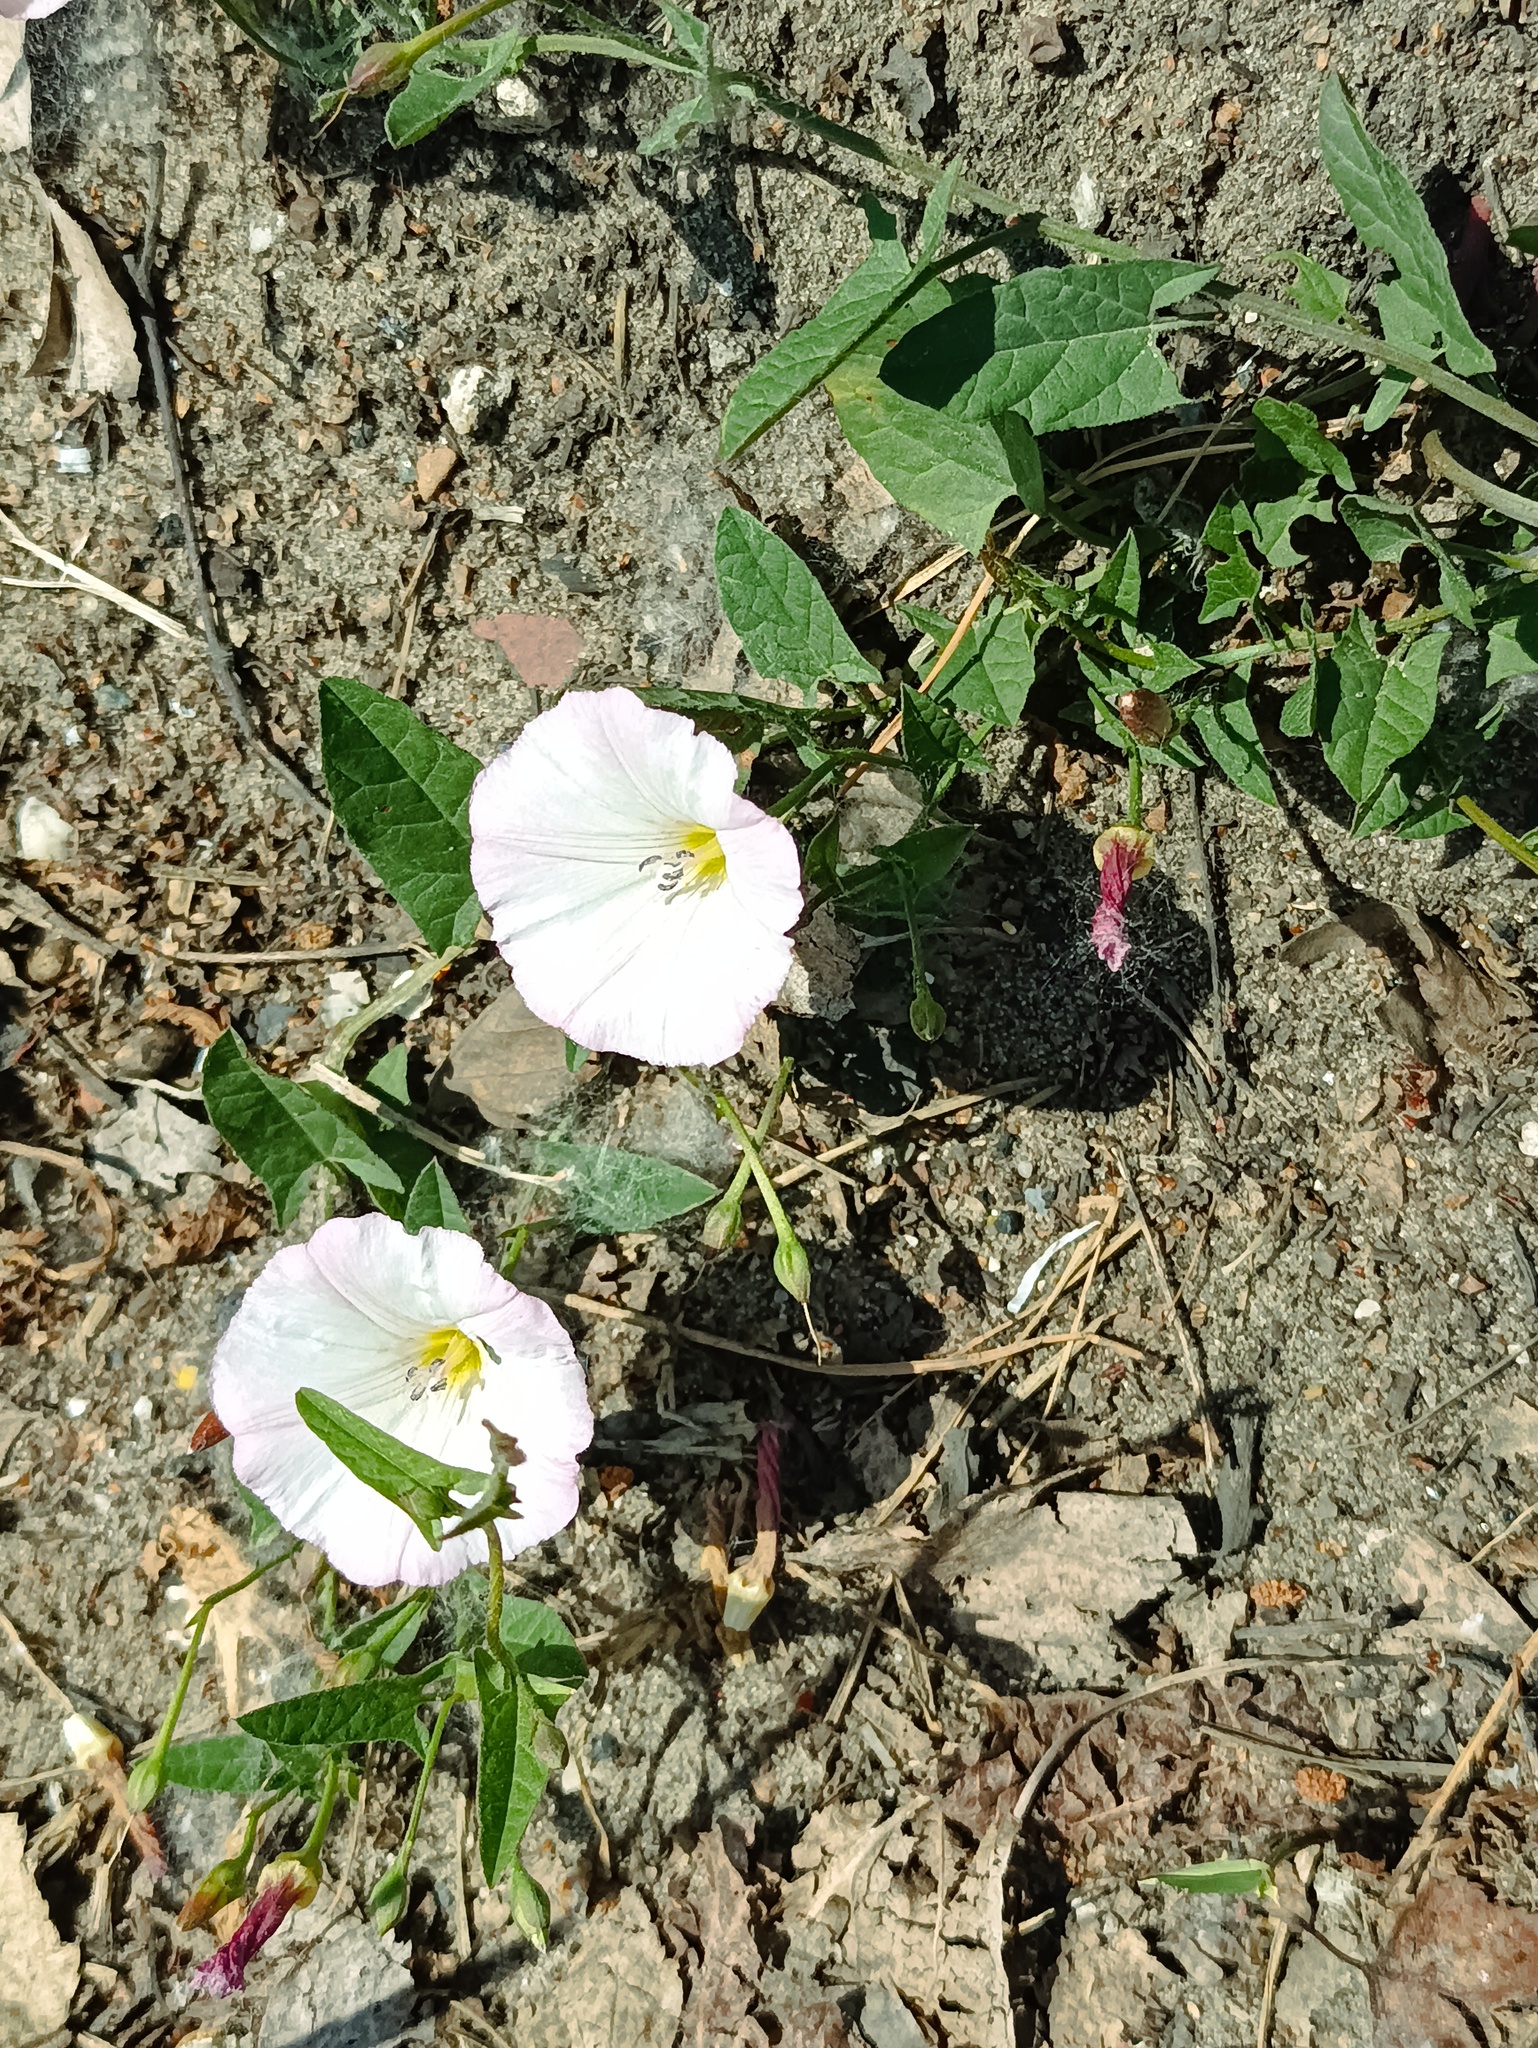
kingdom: Plantae
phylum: Tracheophyta
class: Magnoliopsida
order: Solanales
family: Convolvulaceae
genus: Convolvulus
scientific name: Convolvulus arvensis
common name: Field bindweed
